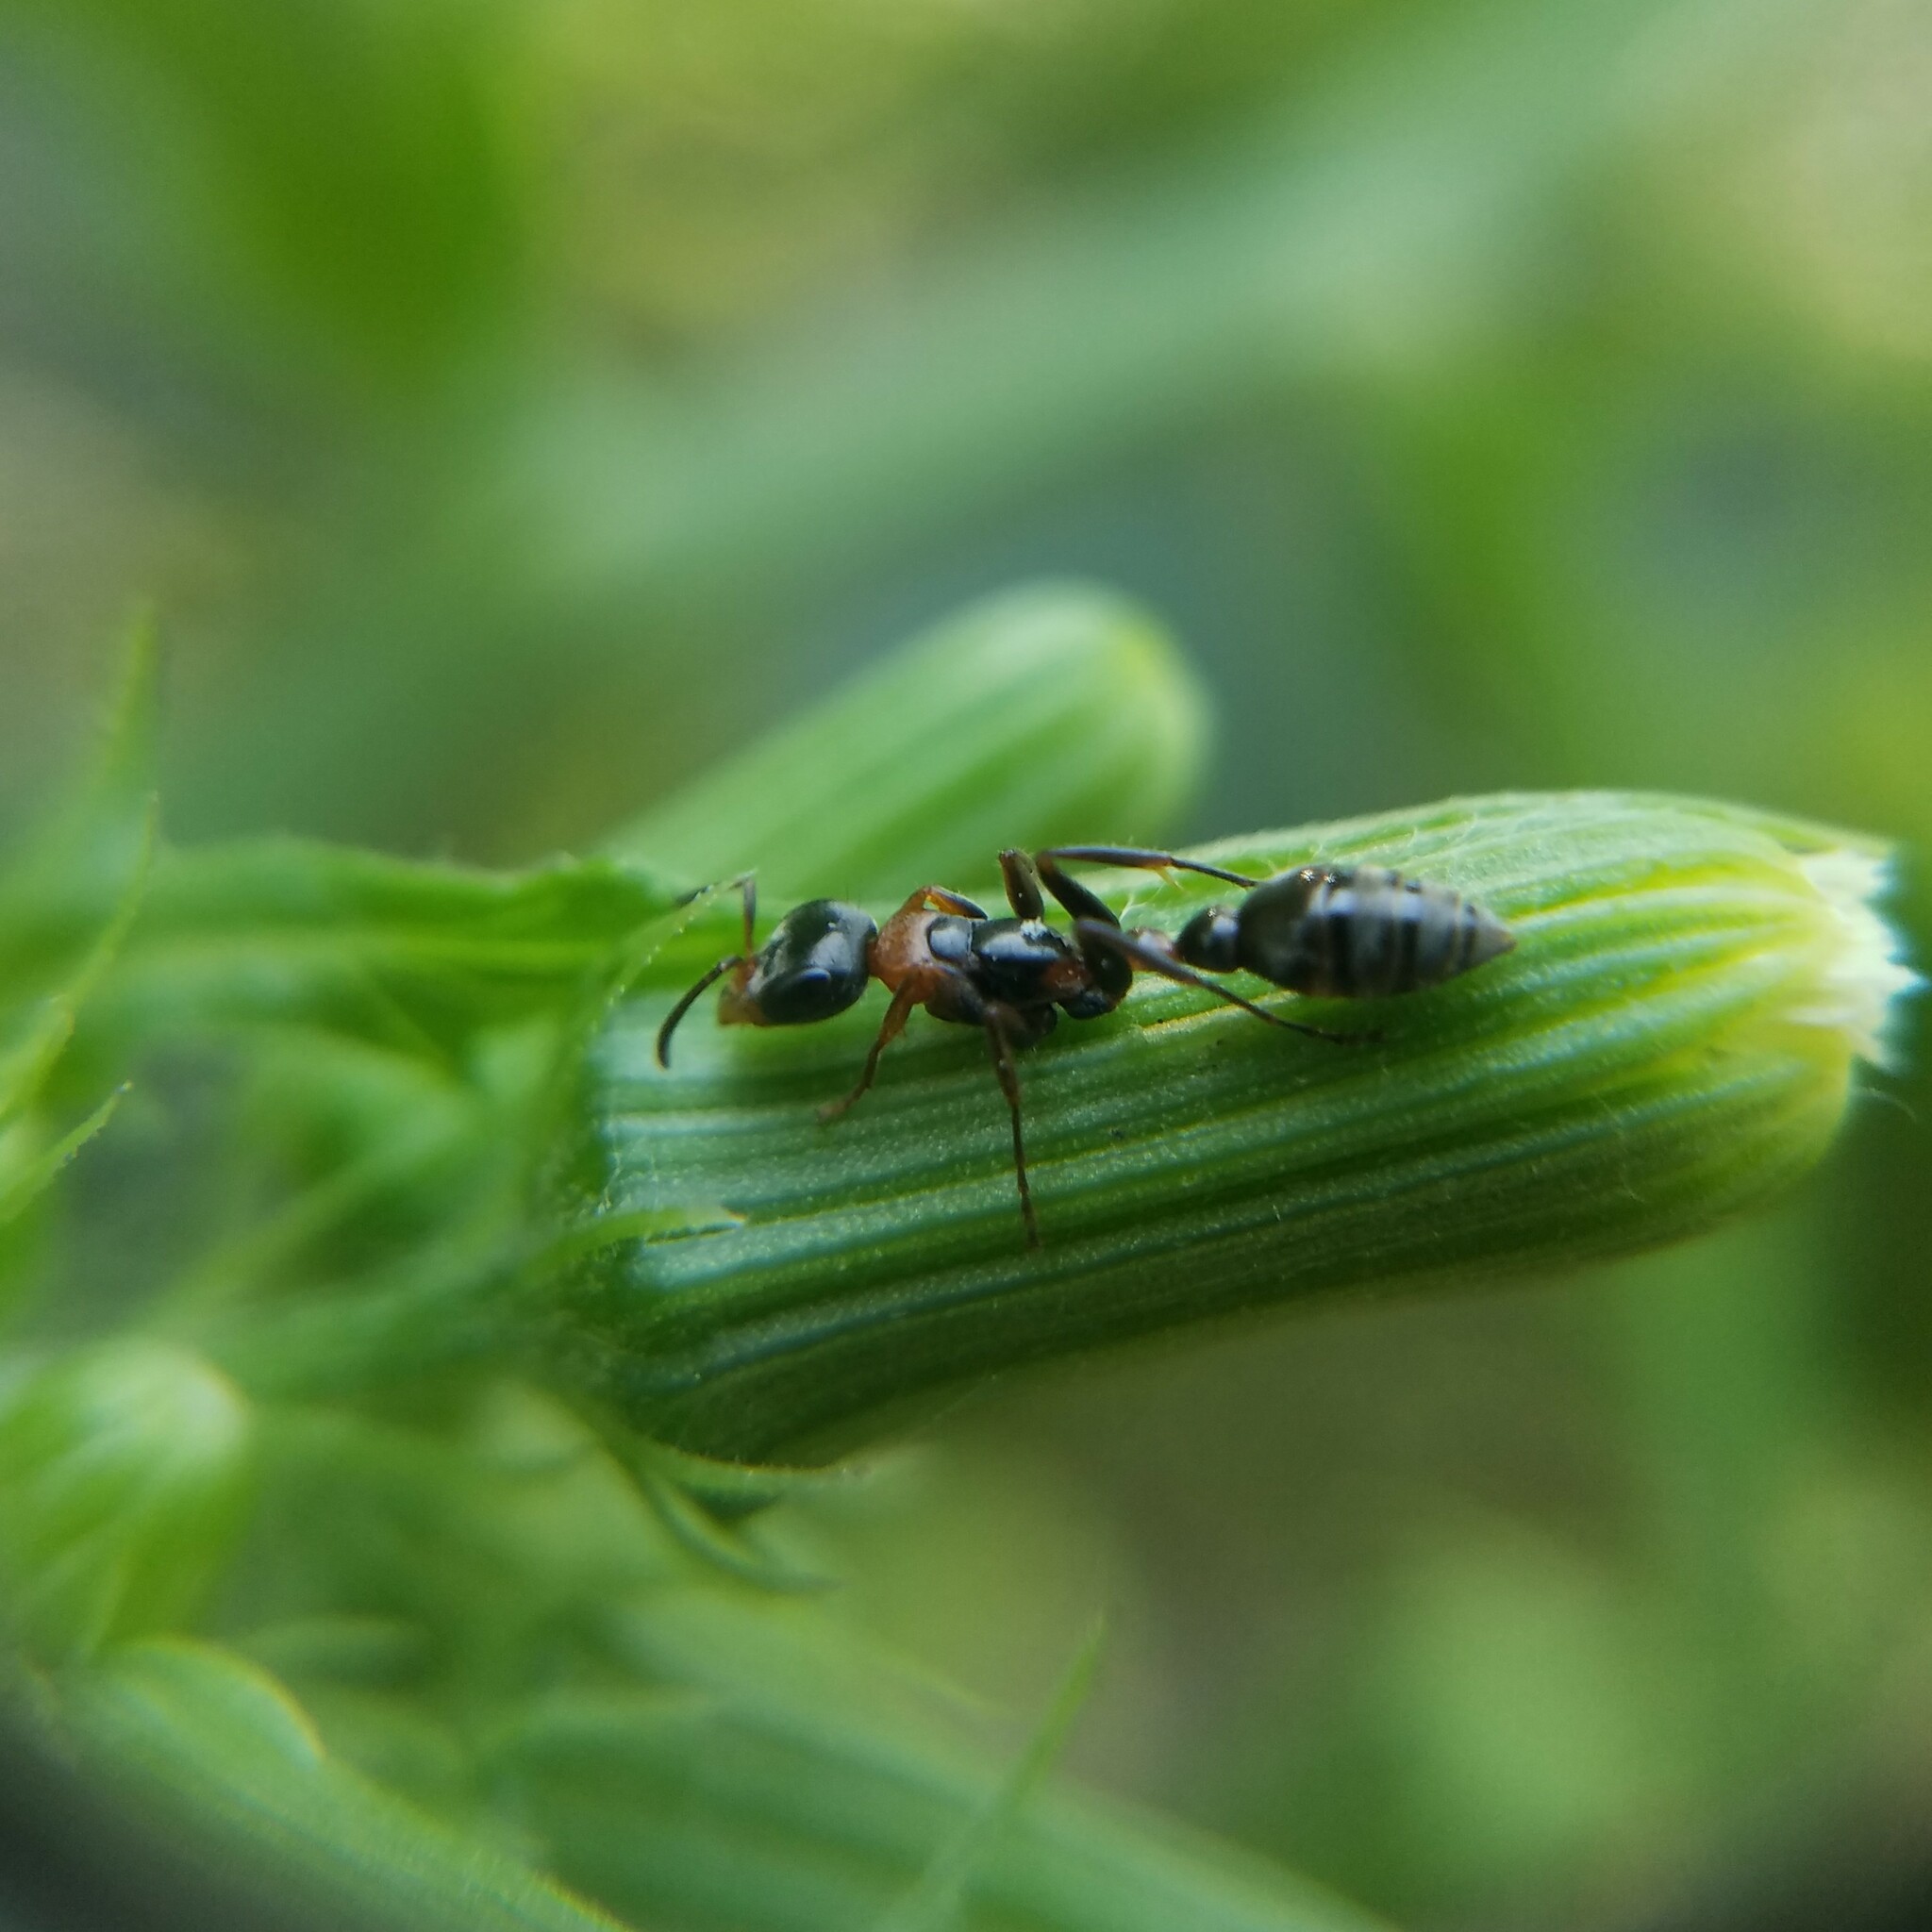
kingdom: Animalia
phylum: Arthropoda
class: Insecta
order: Hymenoptera
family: Formicidae
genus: Pseudomyrmex
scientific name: Pseudomyrmex gracilis
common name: Graceful twig ant
